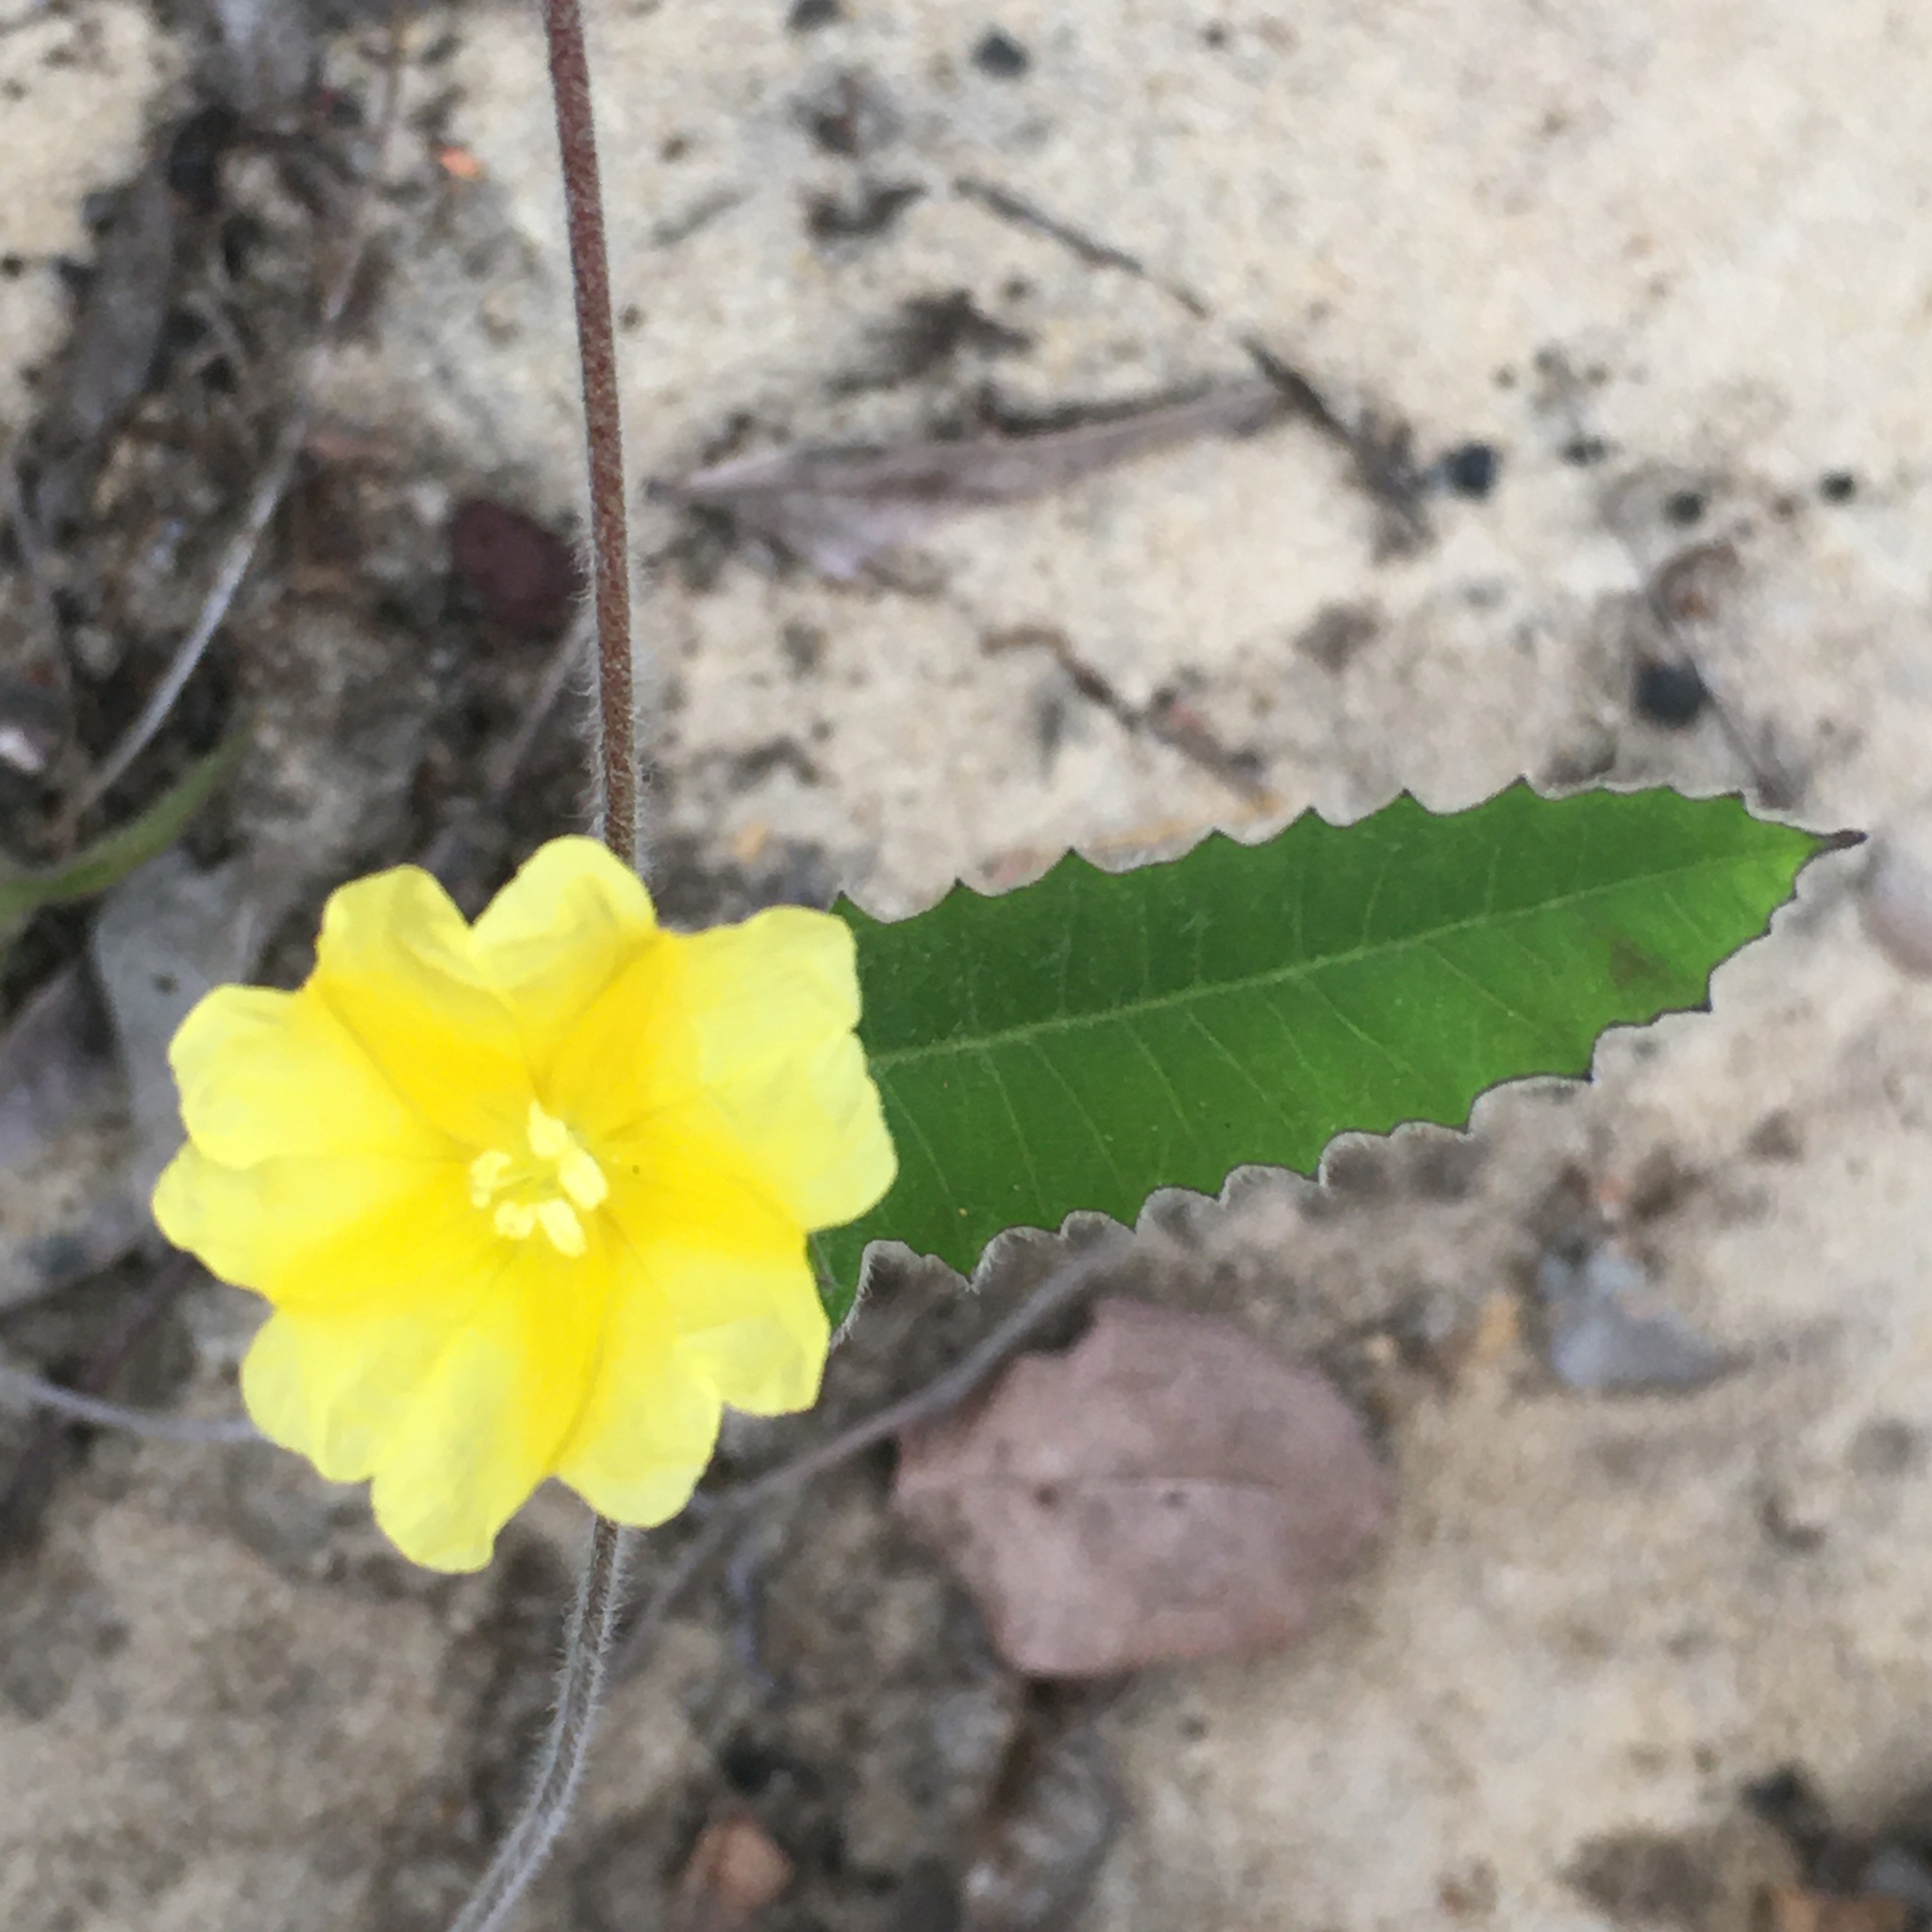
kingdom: Plantae
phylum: Tracheophyta
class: Magnoliopsida
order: Solanales
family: Convolvulaceae
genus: Daustinia
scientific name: Daustinia montana
